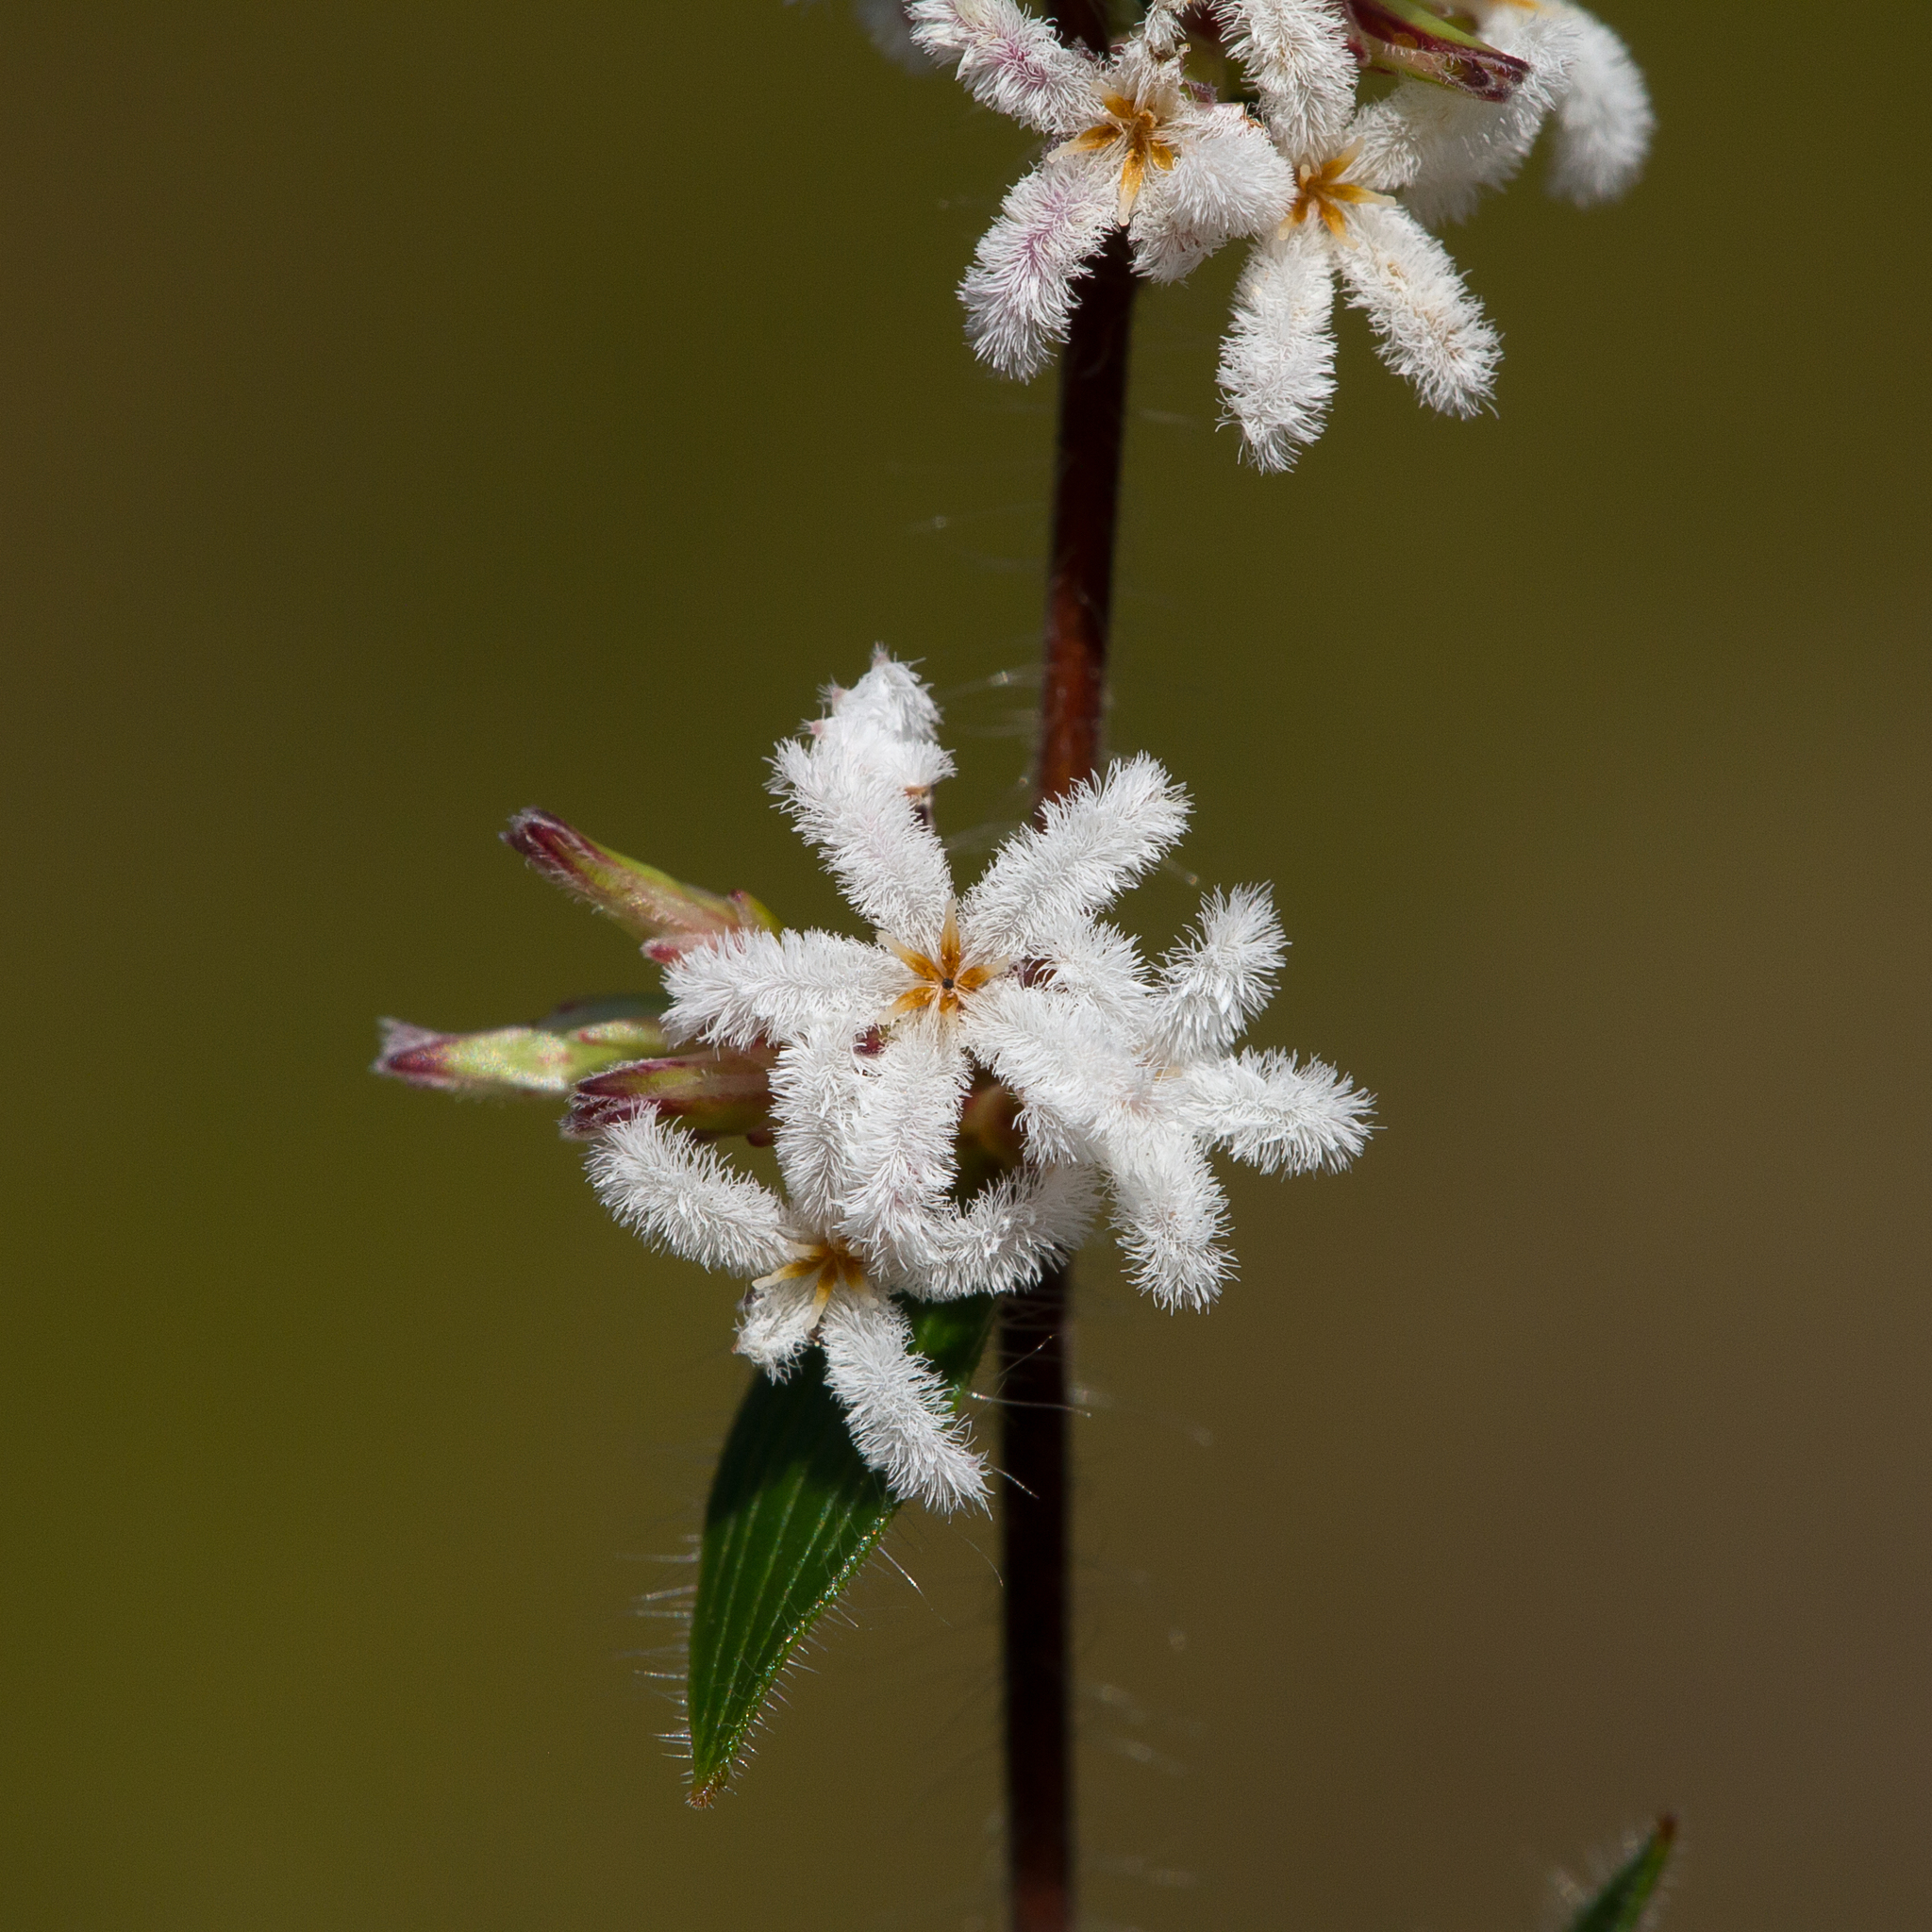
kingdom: Plantae
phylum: Tracheophyta
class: Magnoliopsida
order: Ericales
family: Ericaceae
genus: Leucopogon
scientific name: Leucopogon concurvus
